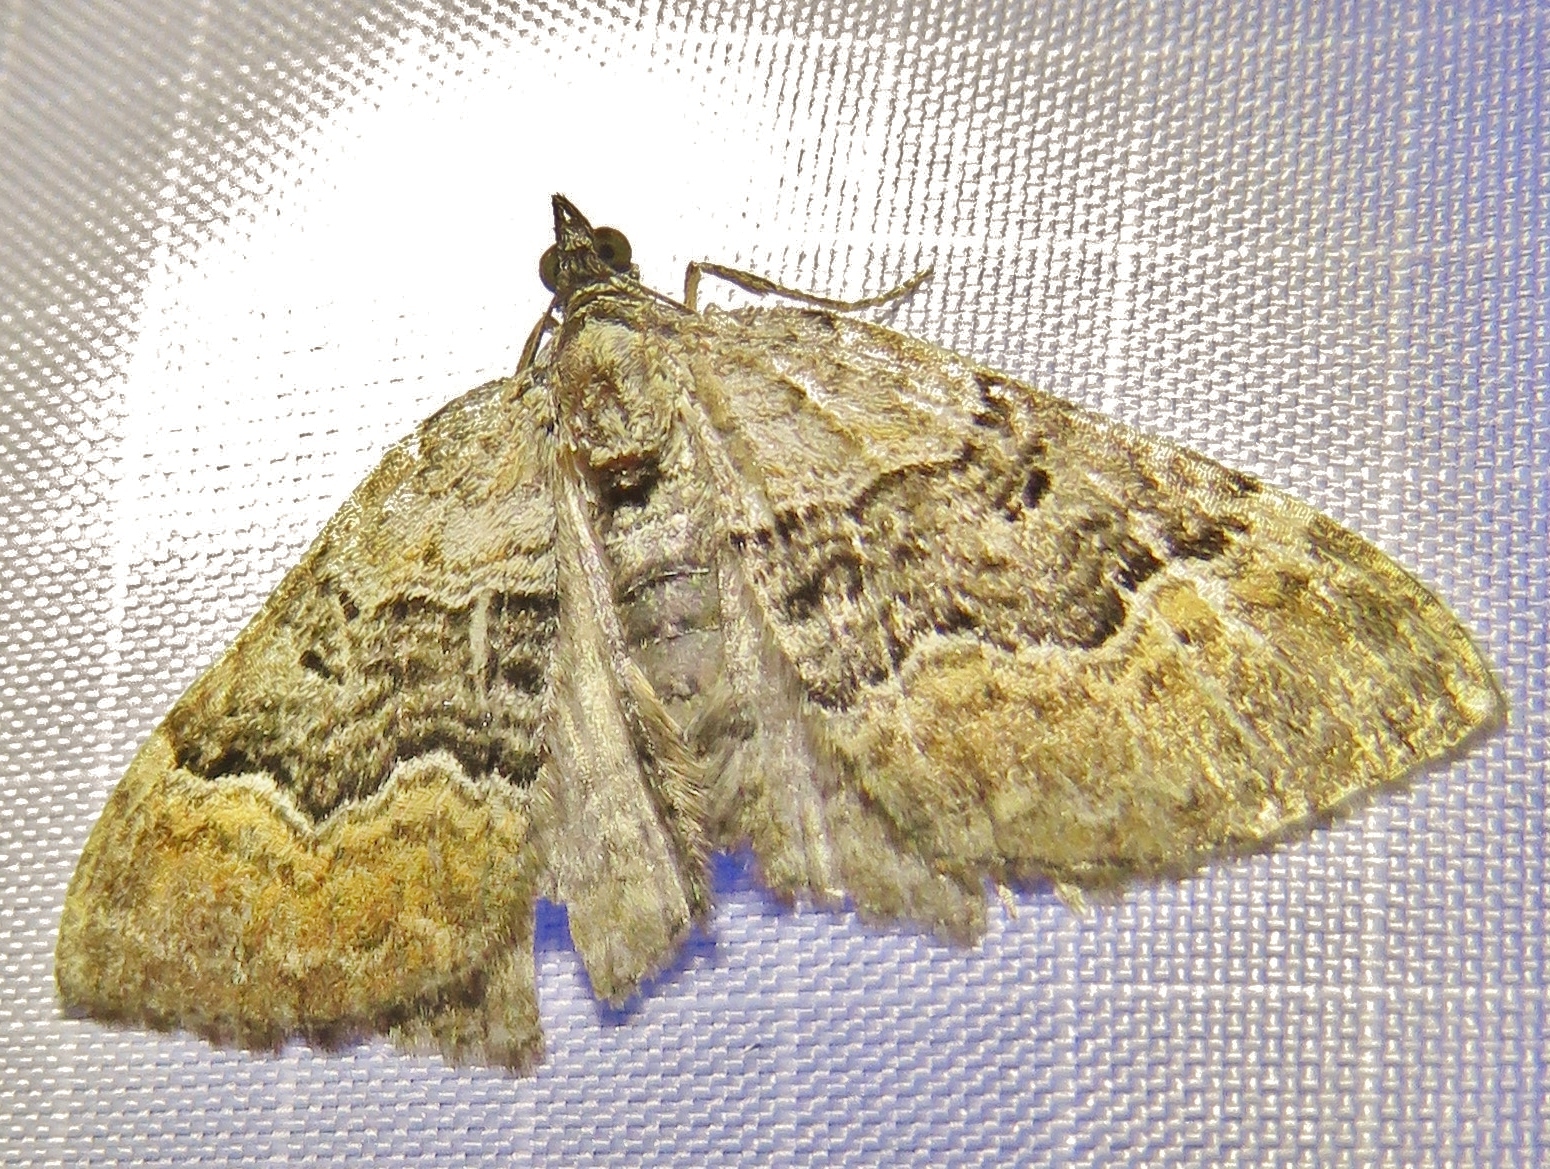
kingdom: Animalia
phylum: Arthropoda
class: Insecta
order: Lepidoptera
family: Geometridae
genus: Xanthorhoe
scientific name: Xanthorhoe quadrifasiata
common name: Large twin-spot carpet
